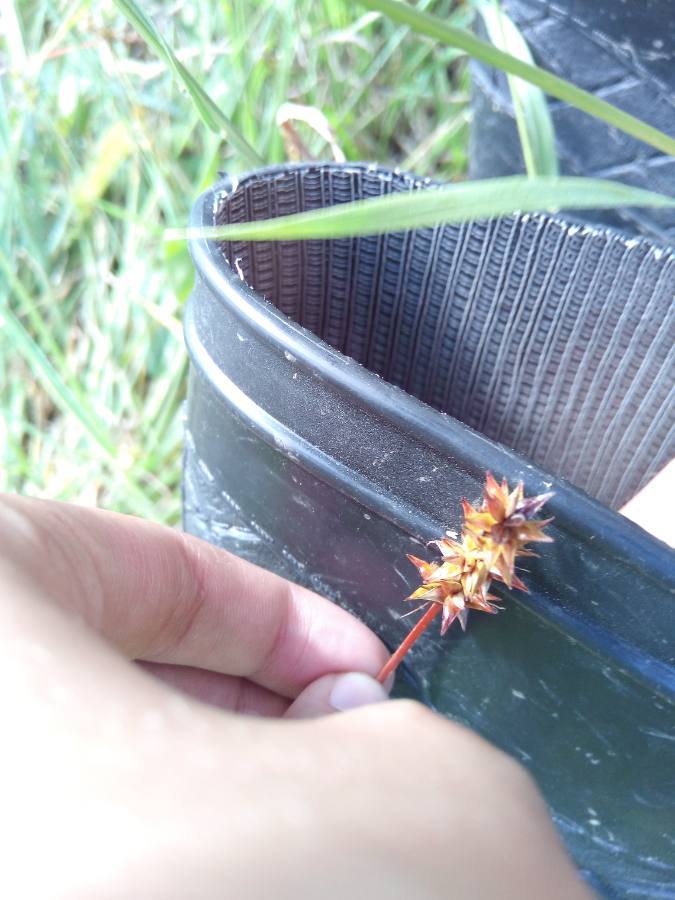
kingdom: Plantae
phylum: Tracheophyta
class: Liliopsida
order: Poales
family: Cyperaceae
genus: Carex
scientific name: Carex spicata
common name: Spiked sedge
